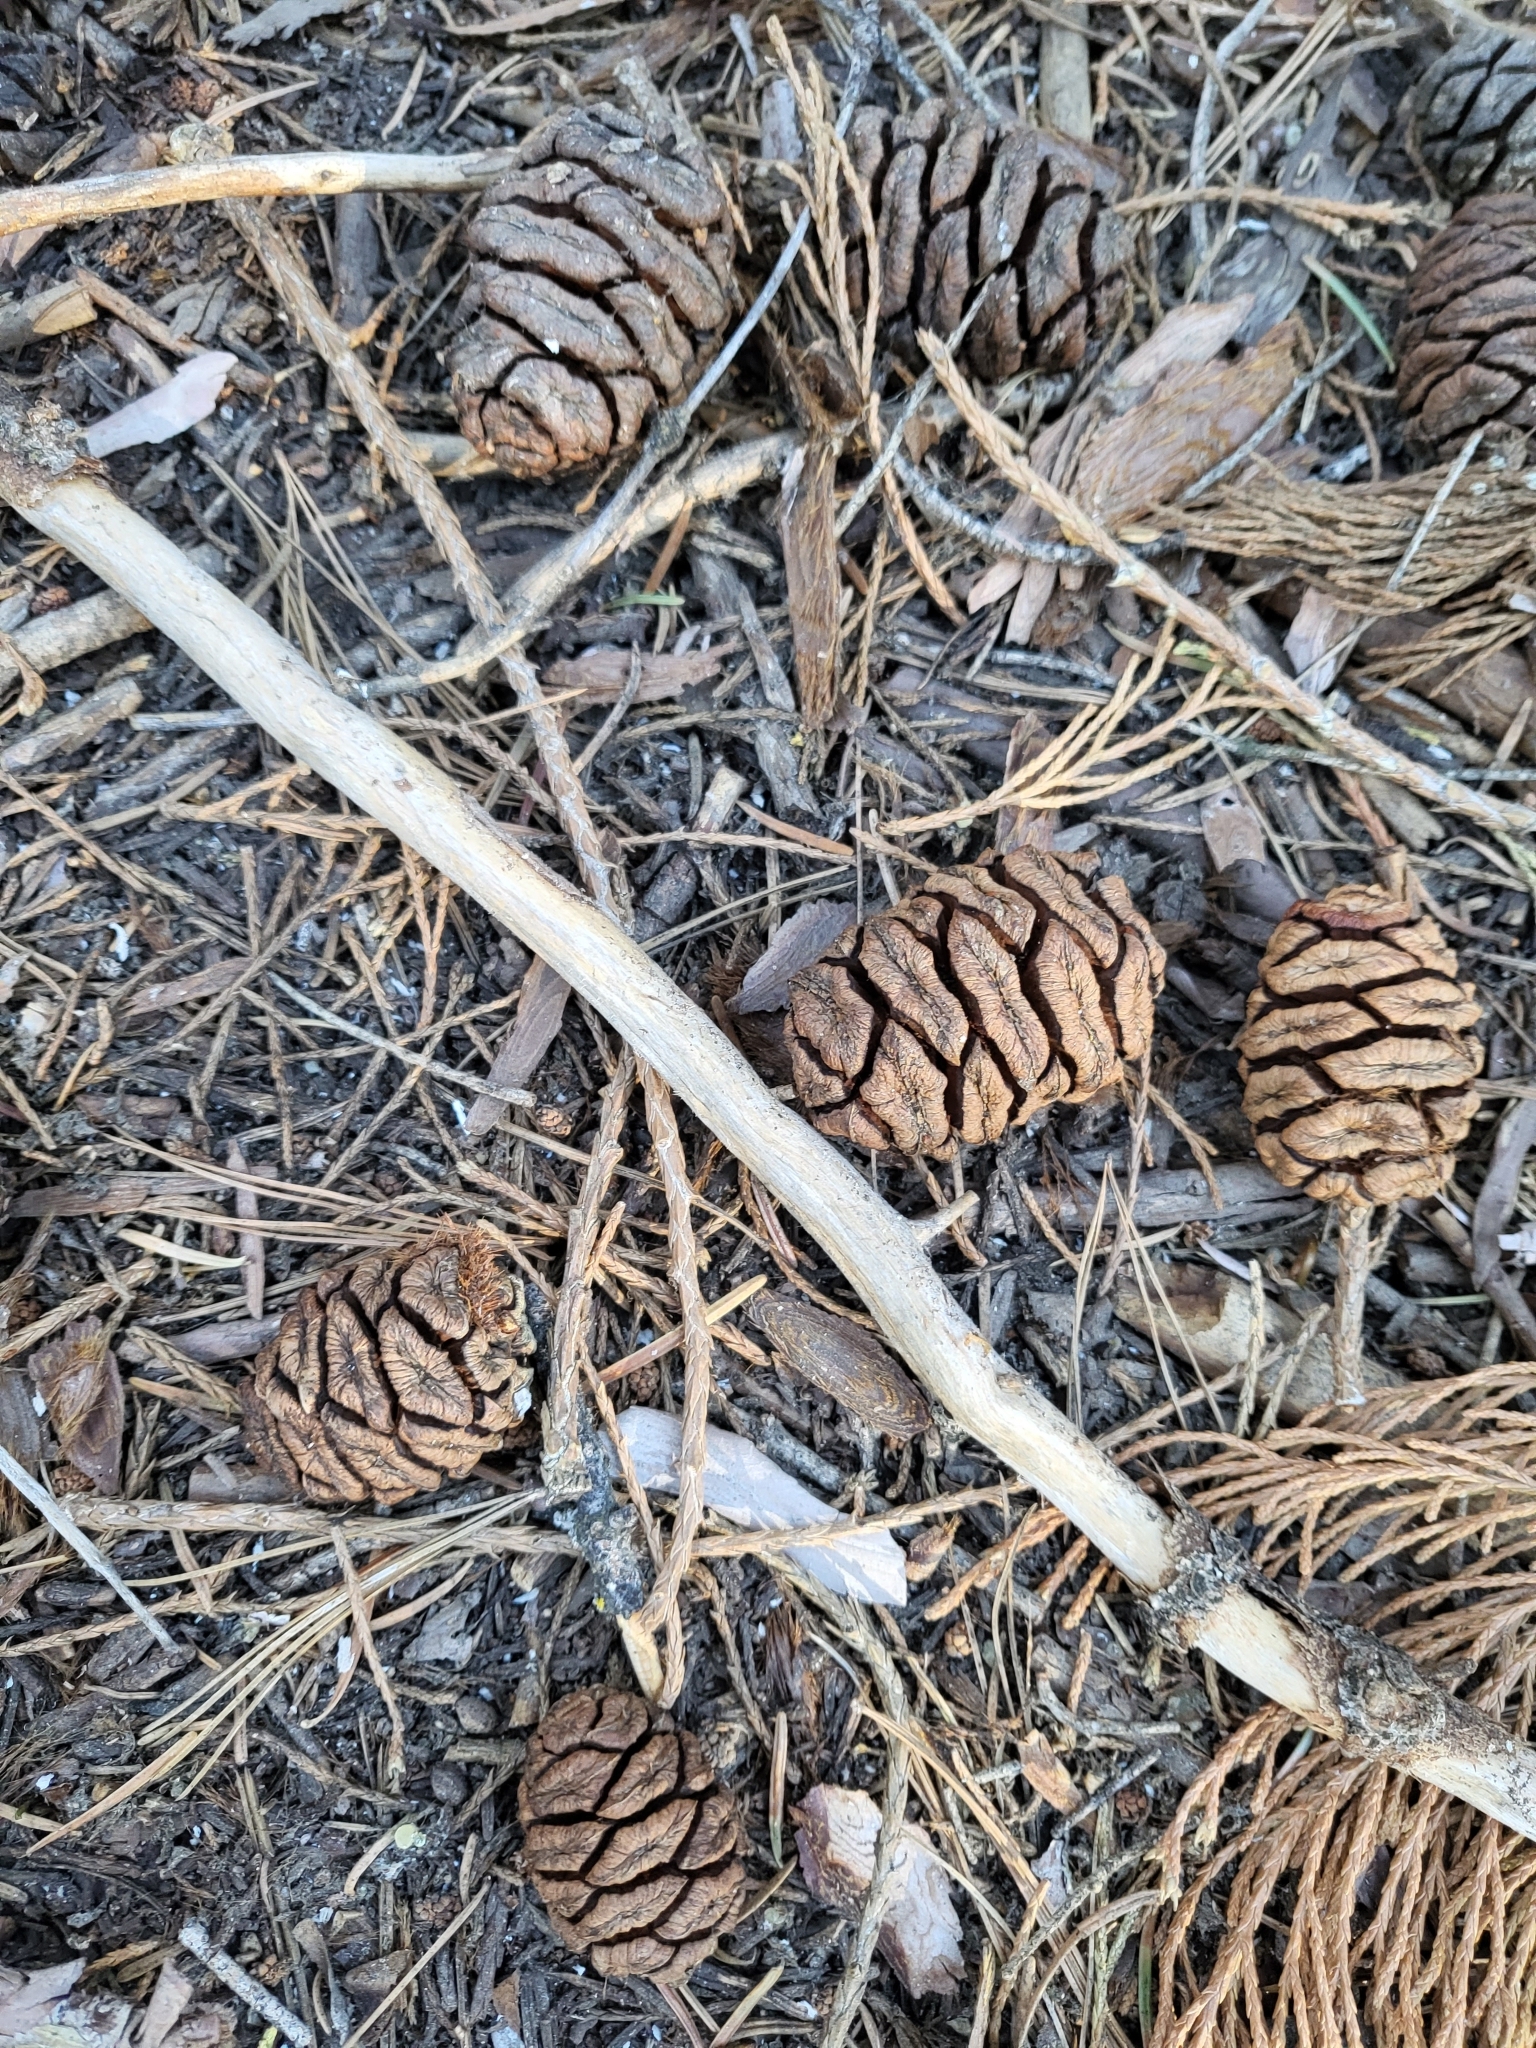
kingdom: Plantae
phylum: Tracheophyta
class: Pinopsida
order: Pinales
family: Cupressaceae
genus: Sequoiadendron
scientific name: Sequoiadendron giganteum
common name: Wellingtonia
